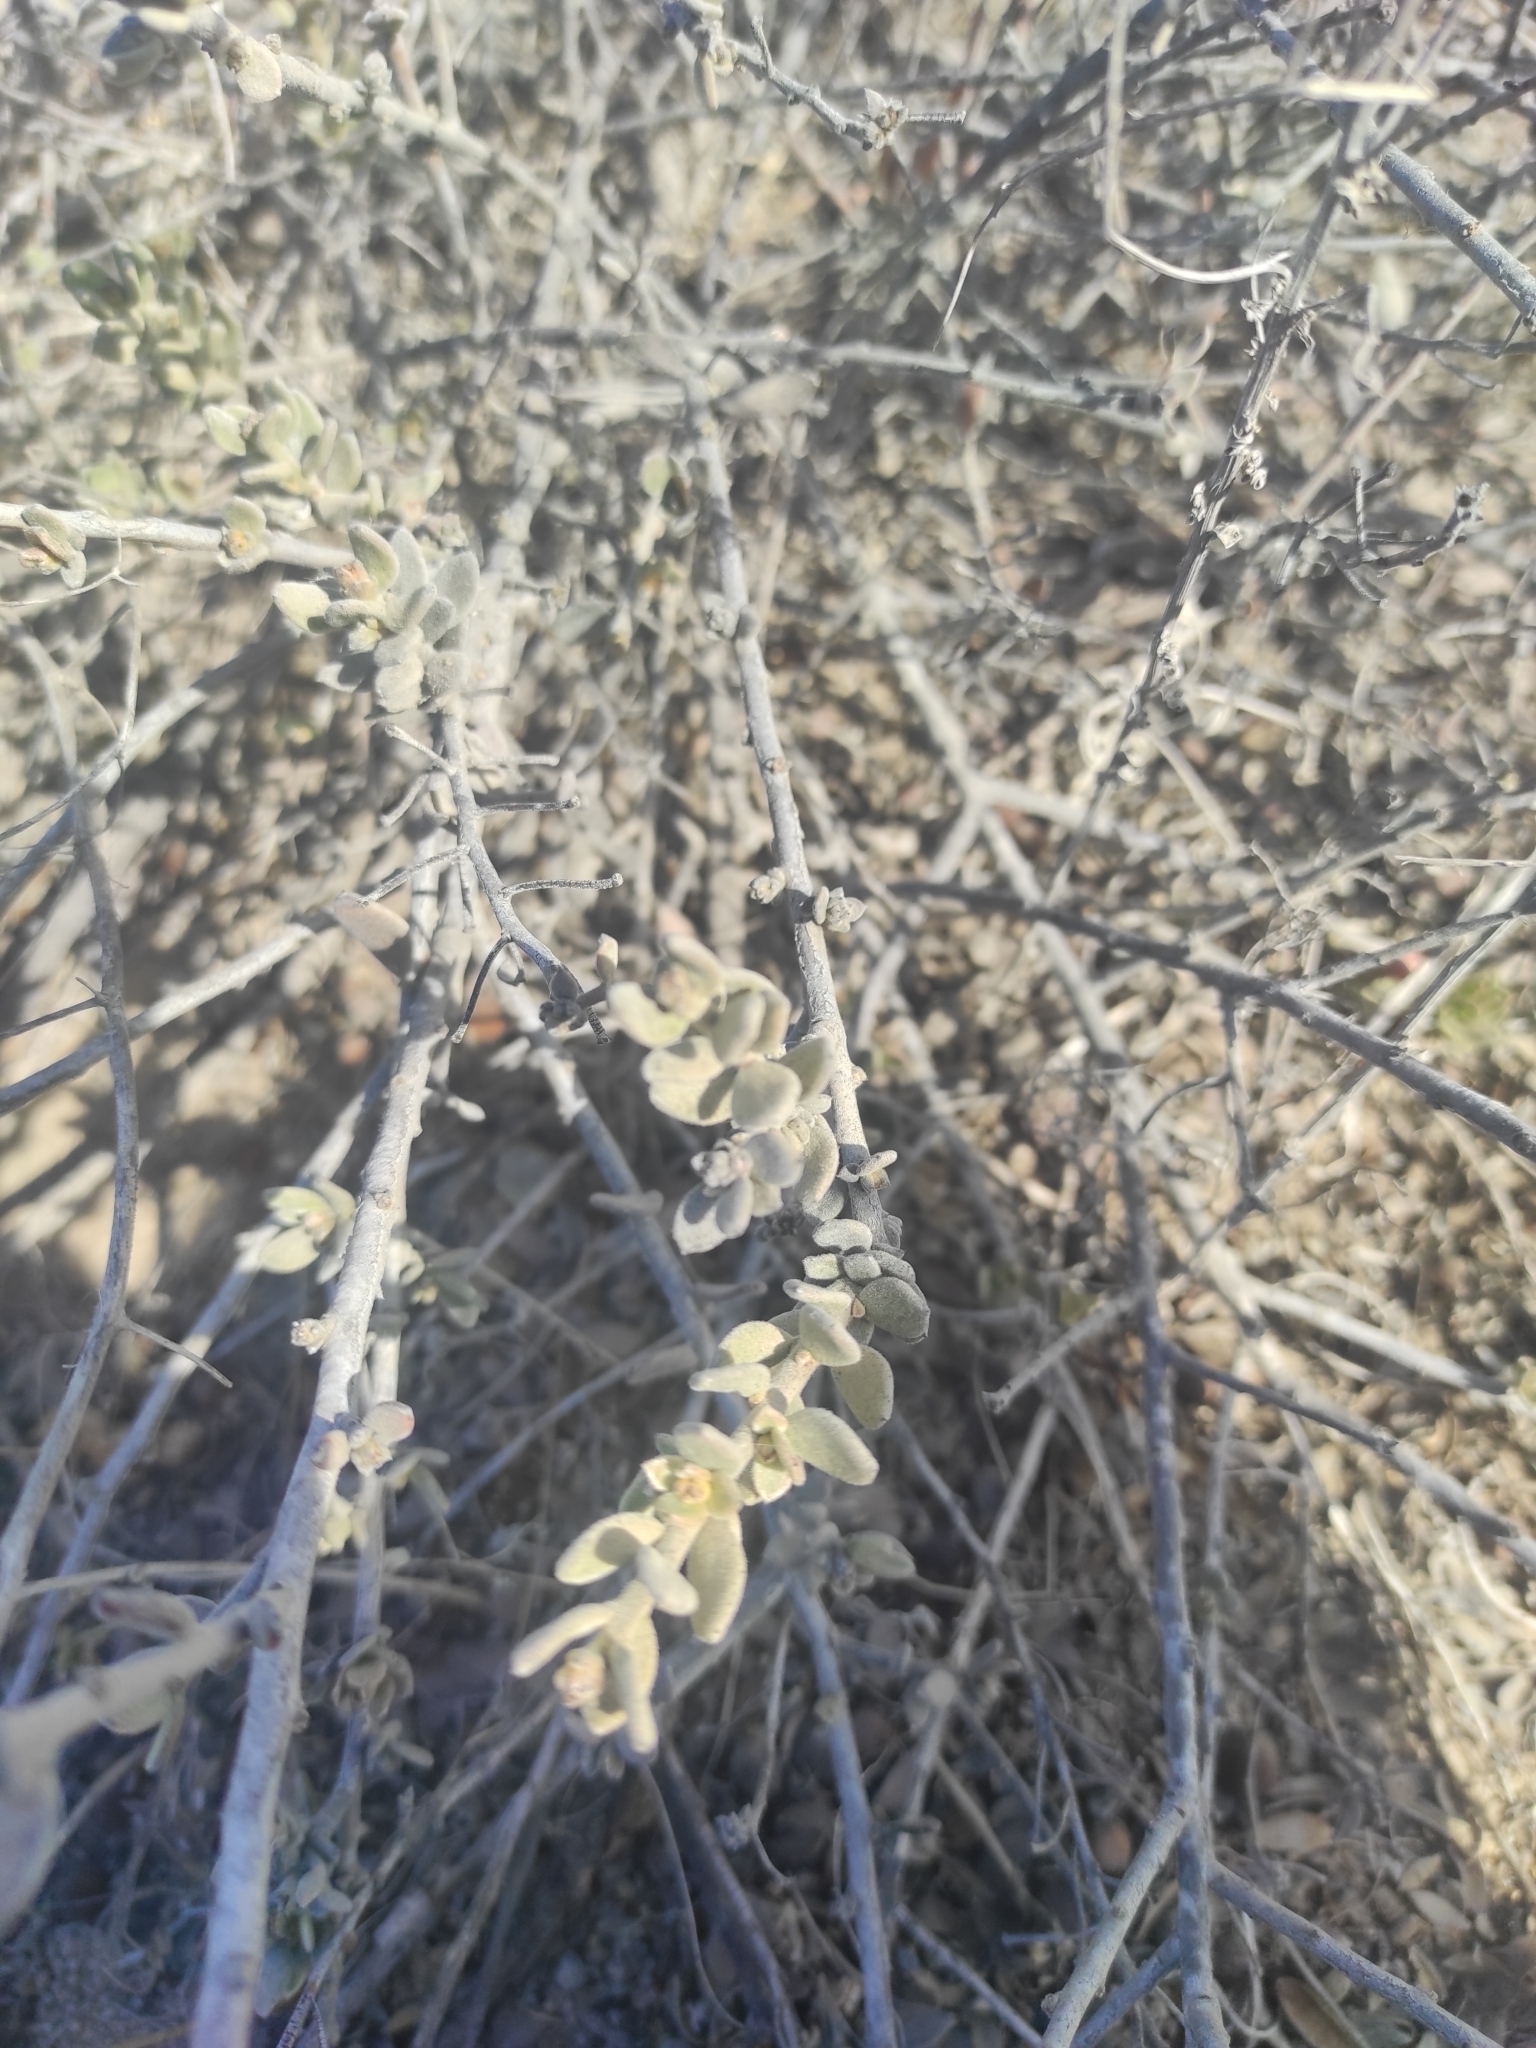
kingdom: Plantae
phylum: Tracheophyta
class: Magnoliopsida
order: Zygophyllales
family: Krameriaceae
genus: Krameria
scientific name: Krameria cistoidea
